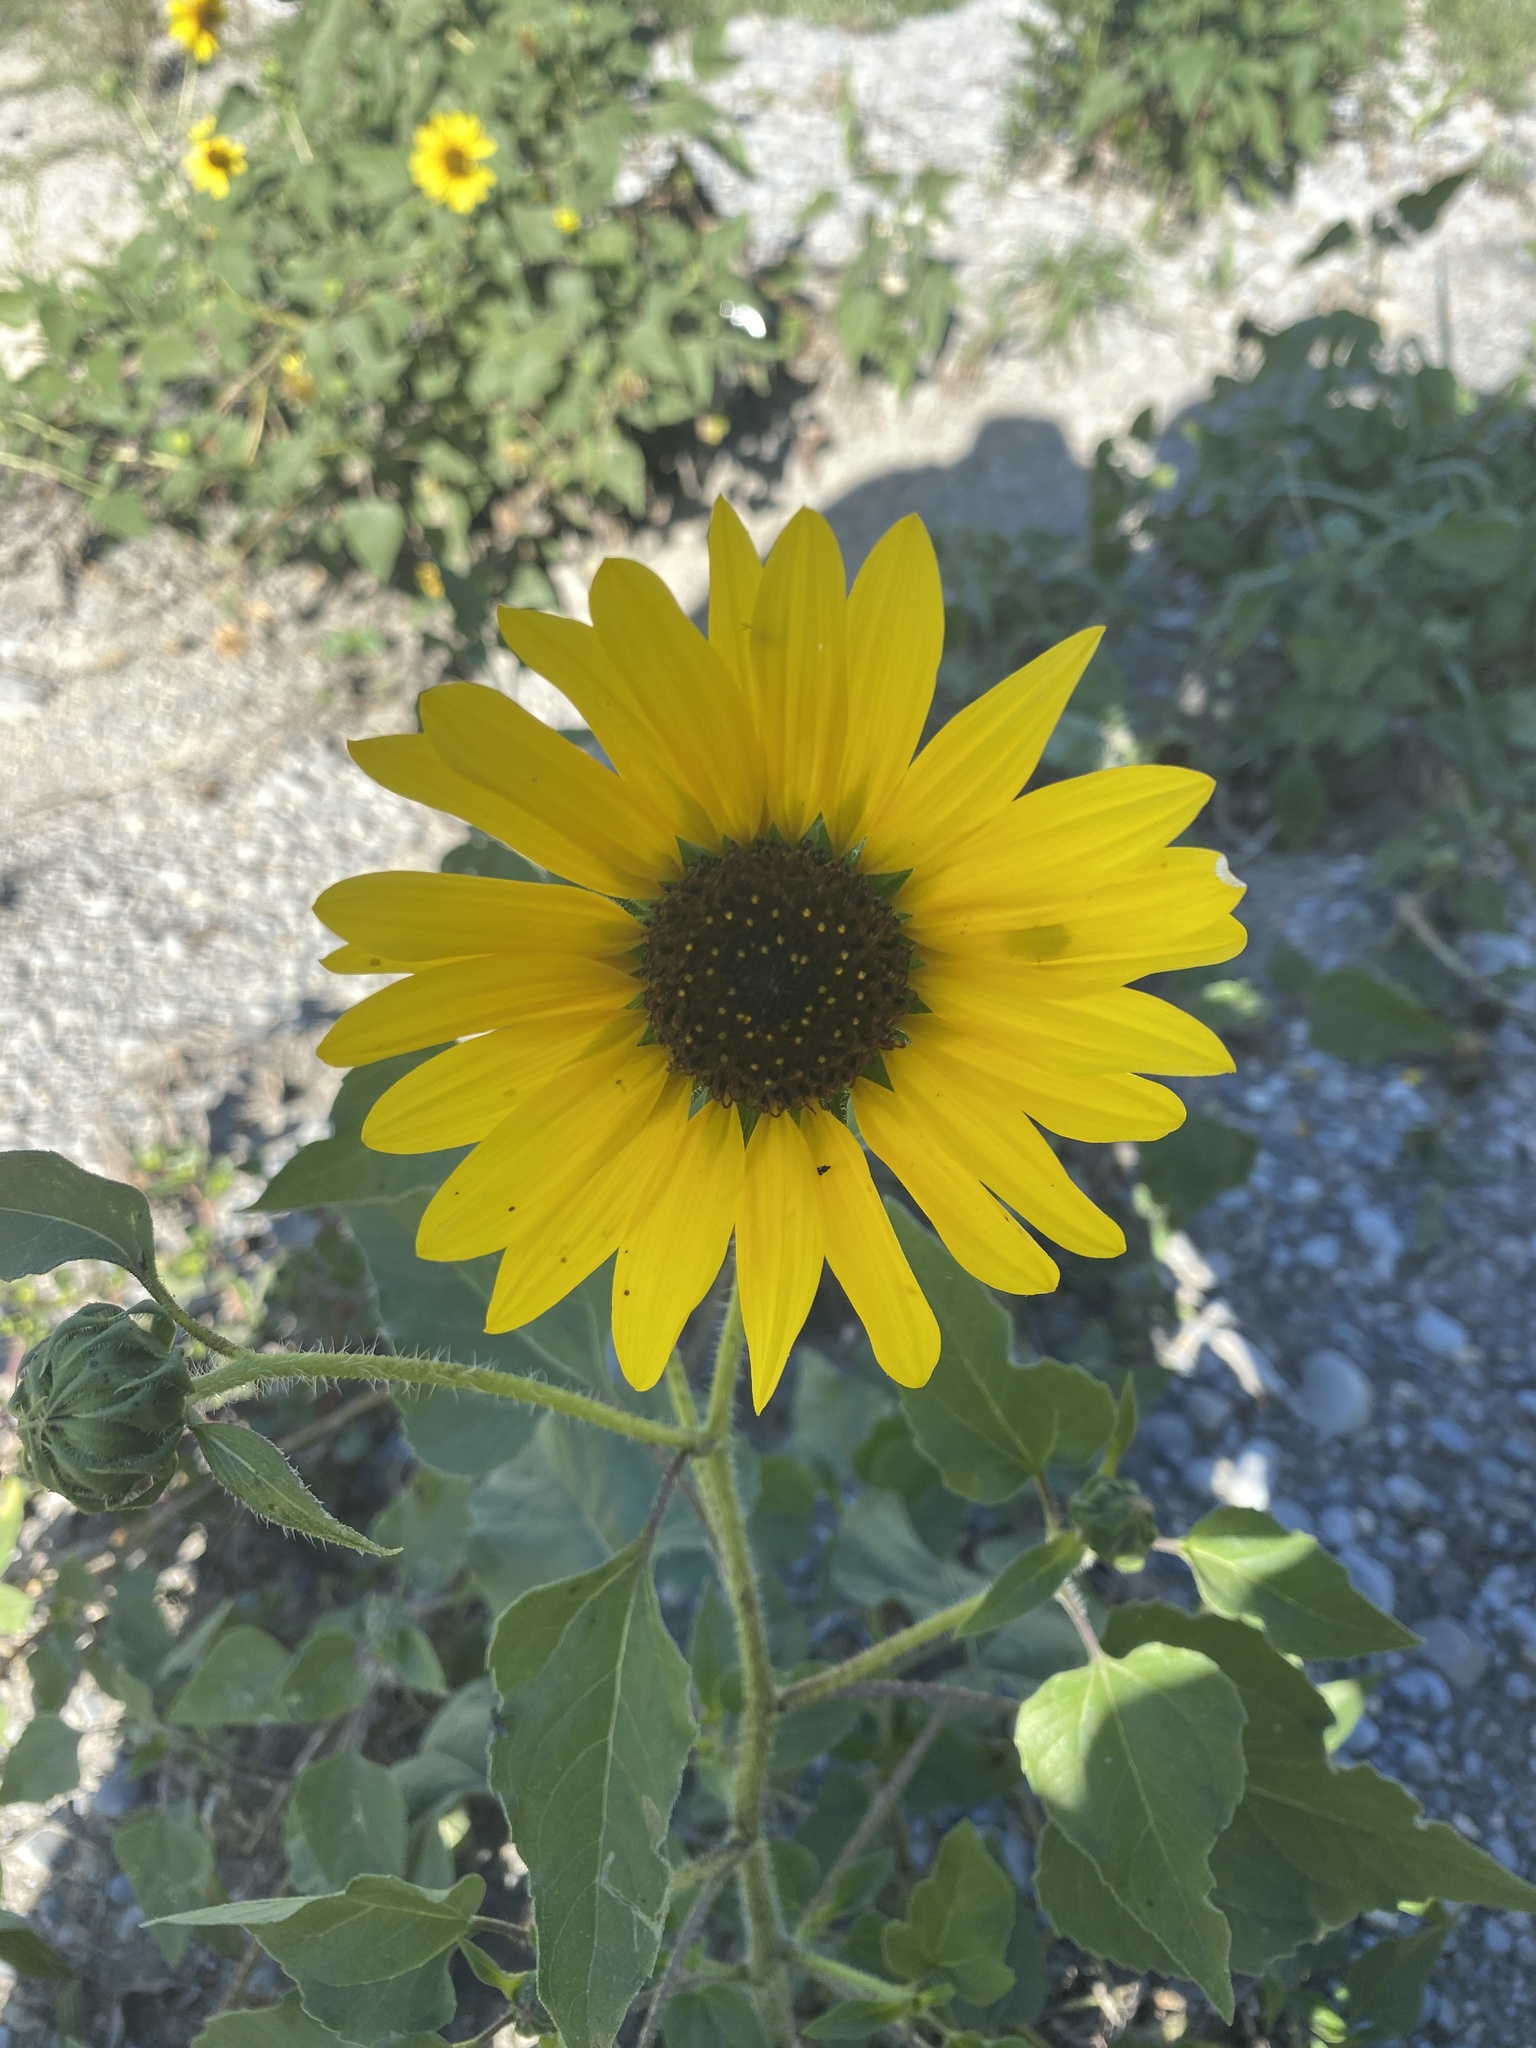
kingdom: Plantae
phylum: Tracheophyta
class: Magnoliopsida
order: Asterales
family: Asteraceae
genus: Helianthus
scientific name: Helianthus annuus
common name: Sunflower
